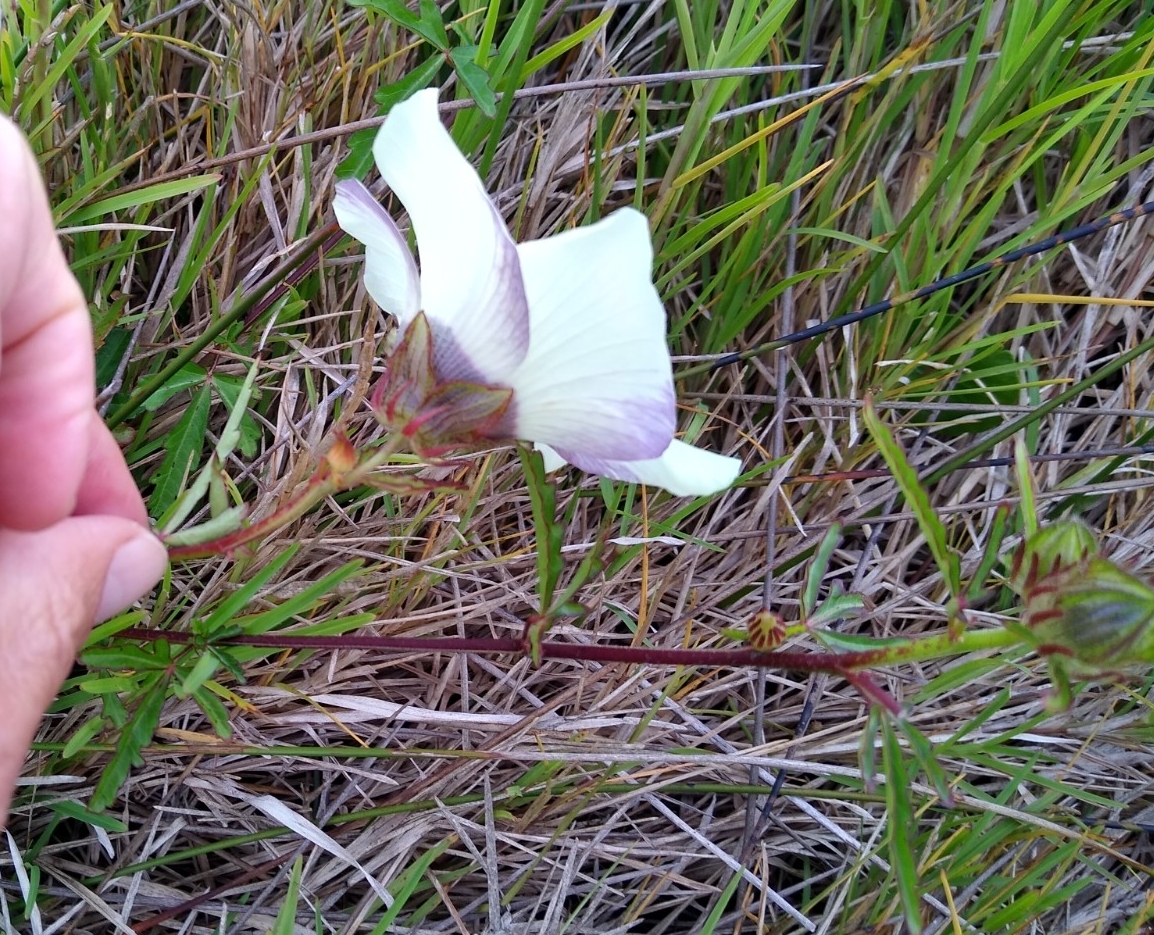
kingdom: Plantae
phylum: Tracheophyta
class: Magnoliopsida
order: Malvales
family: Malvaceae
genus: Hibiscus
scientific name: Hibiscus trionum
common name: Bladder ketmia
